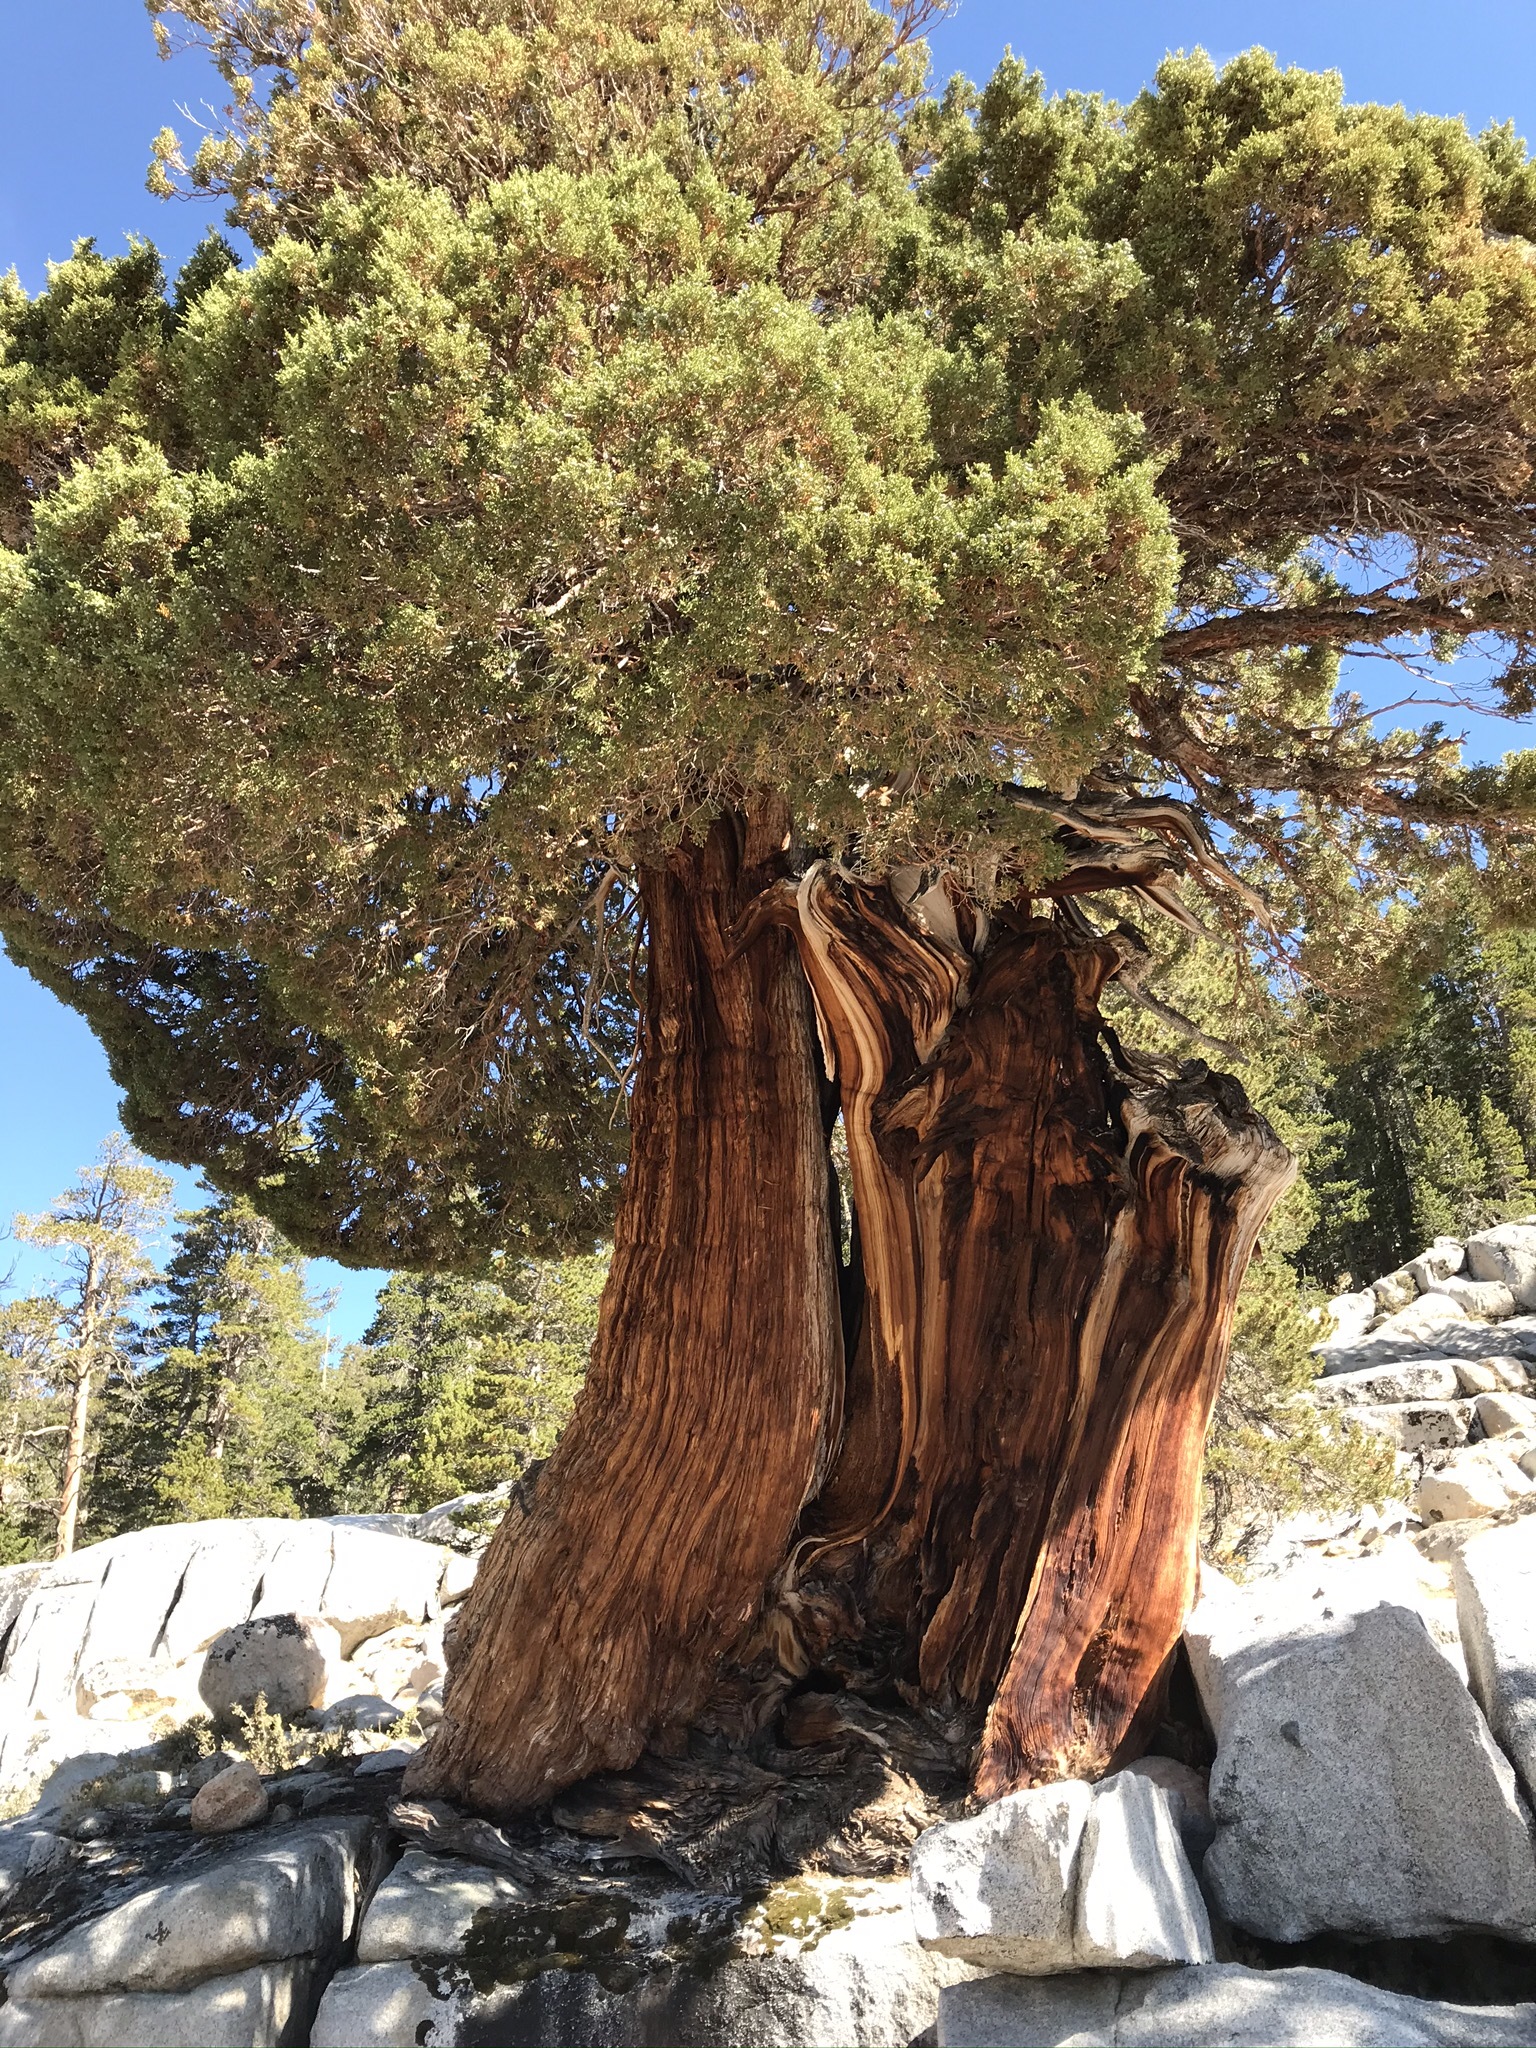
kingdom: Plantae
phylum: Tracheophyta
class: Pinopsida
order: Pinales
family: Cupressaceae
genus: Juniperus
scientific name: Juniperus occidentalis
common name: Western juniper
